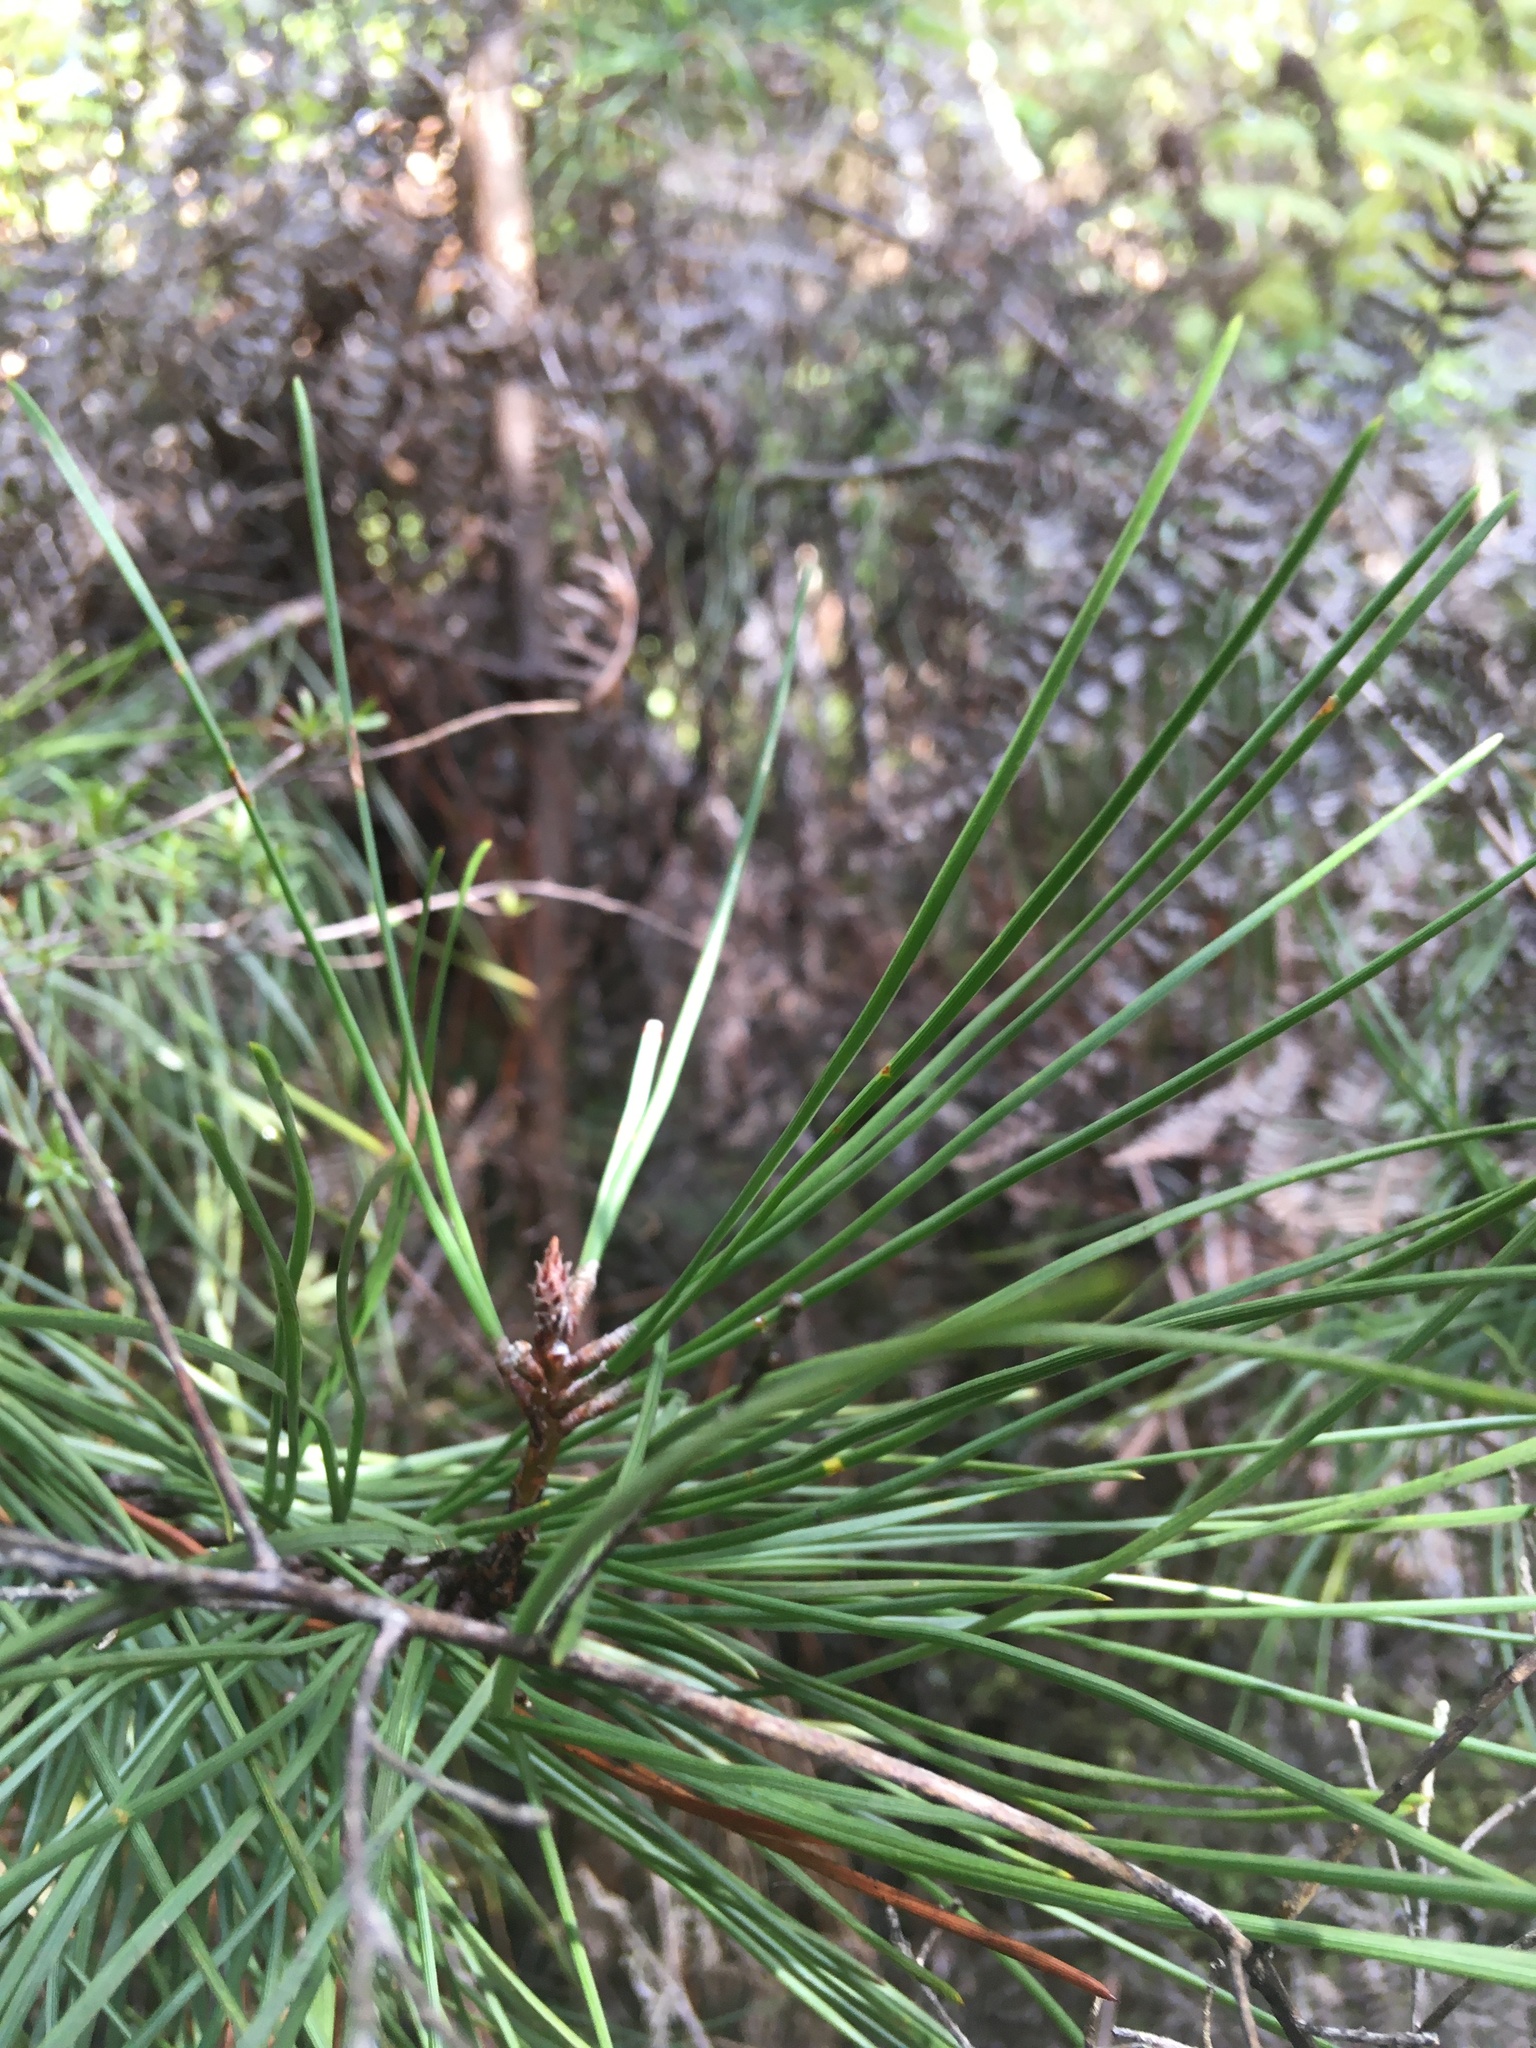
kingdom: Plantae
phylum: Tracheophyta
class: Pinopsida
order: Pinales
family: Pinaceae
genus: Pinus
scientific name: Pinus pinaster
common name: Maritime pine
